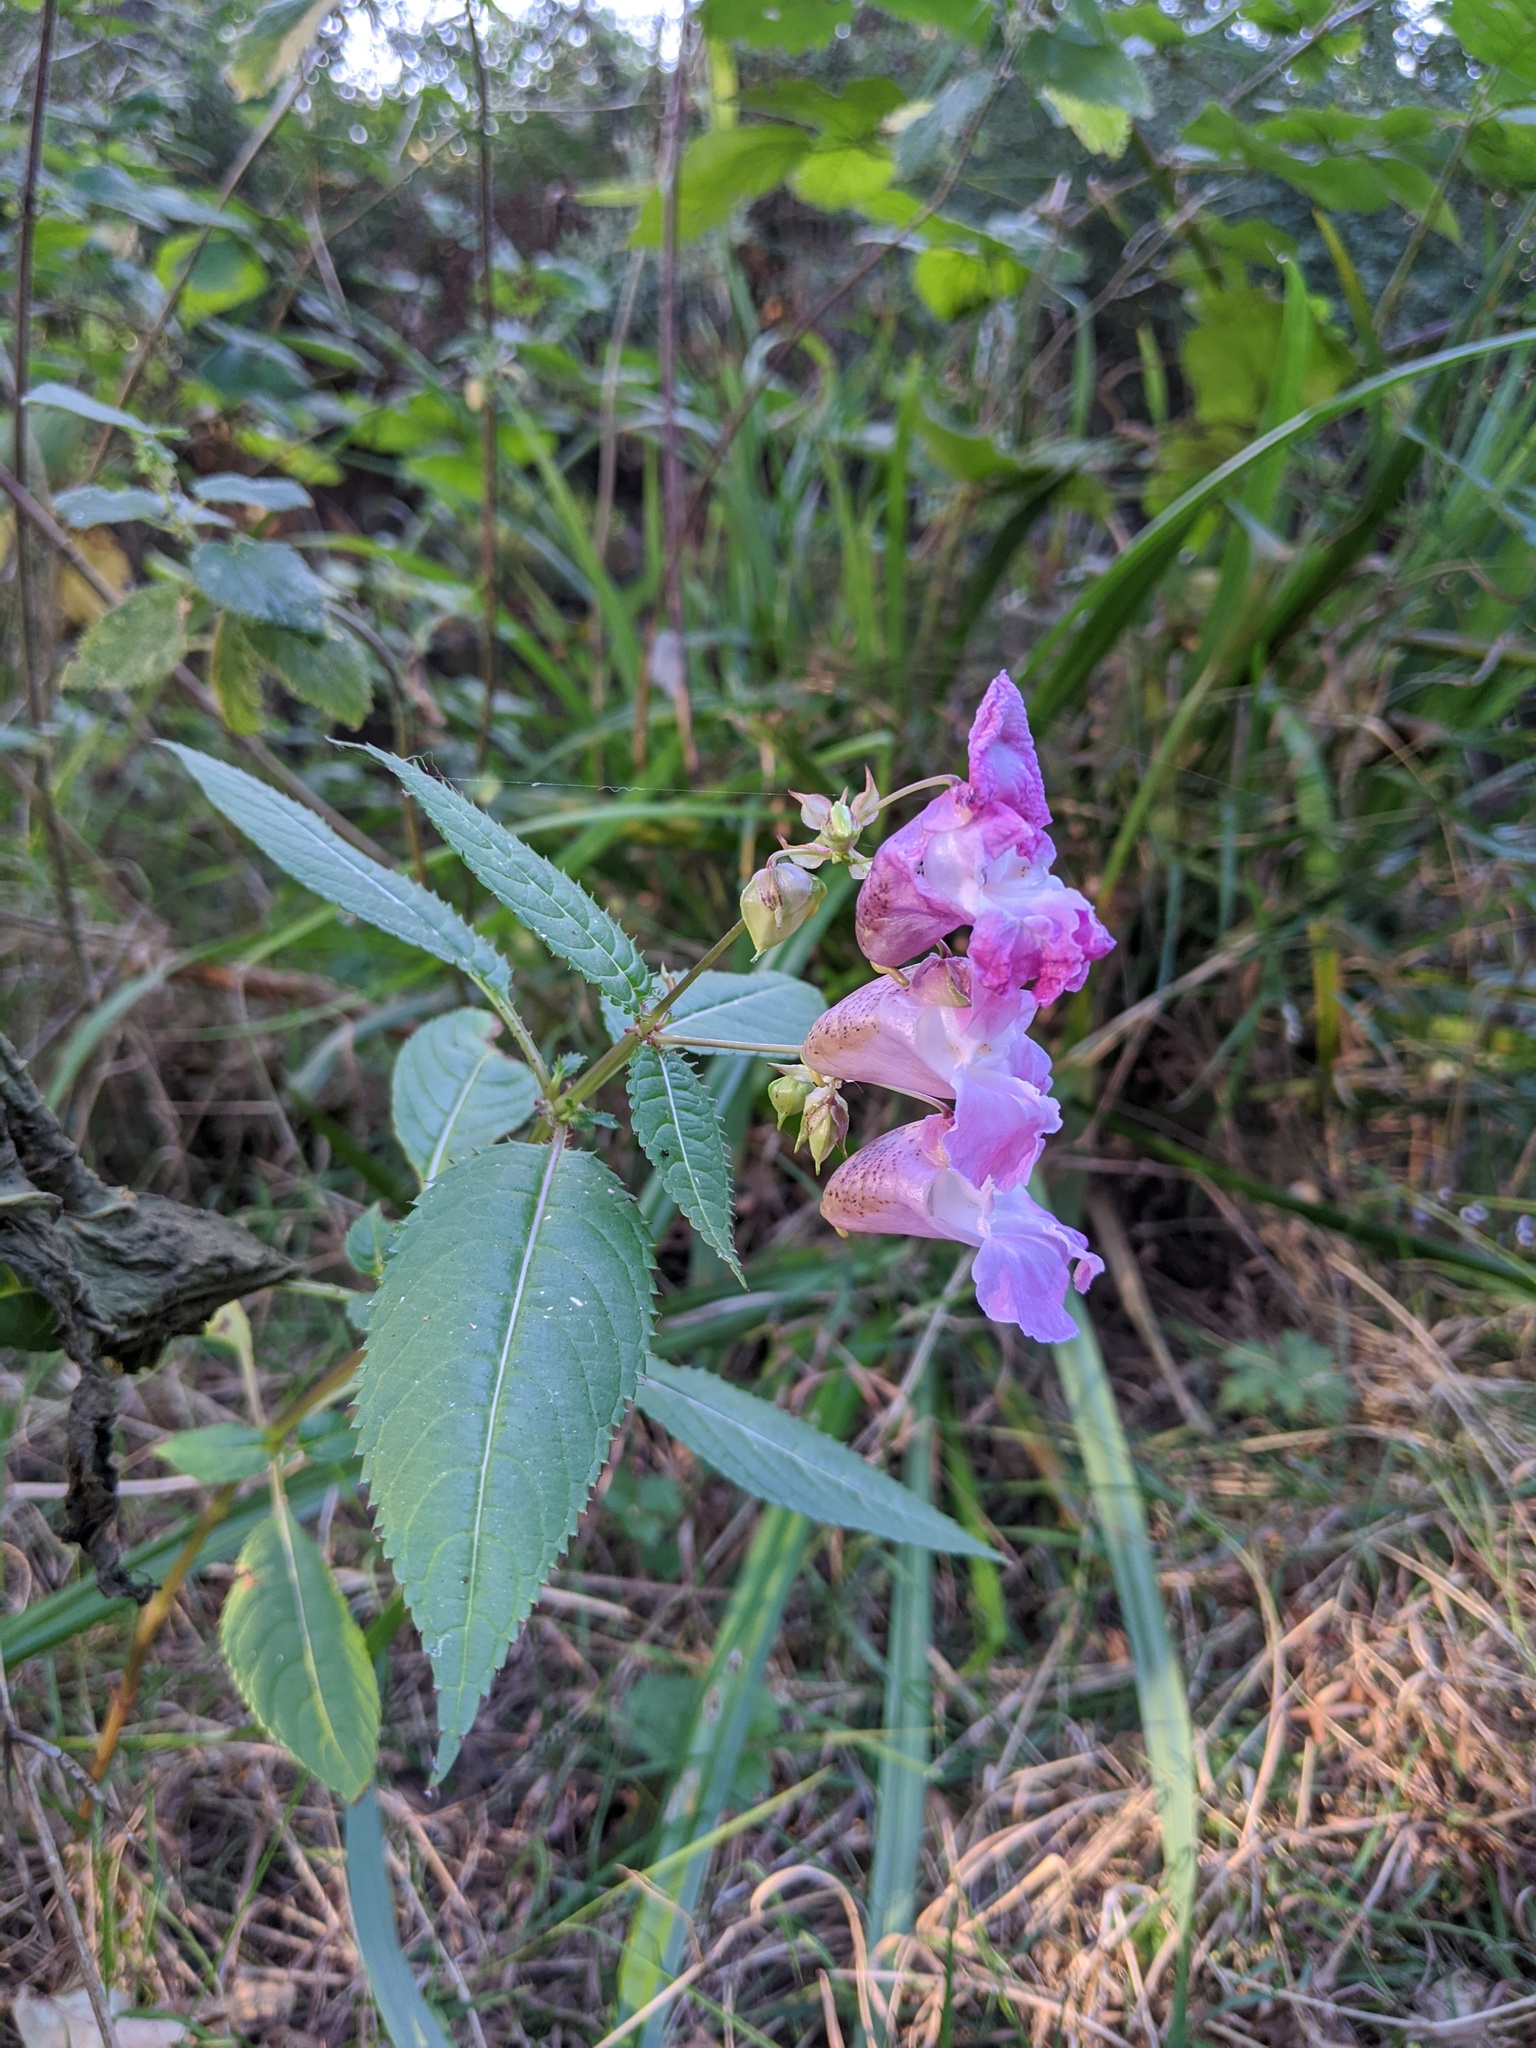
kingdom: Plantae
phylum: Tracheophyta
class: Magnoliopsida
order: Ericales
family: Balsaminaceae
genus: Impatiens
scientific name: Impatiens glandulifera
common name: Himalayan balsam
